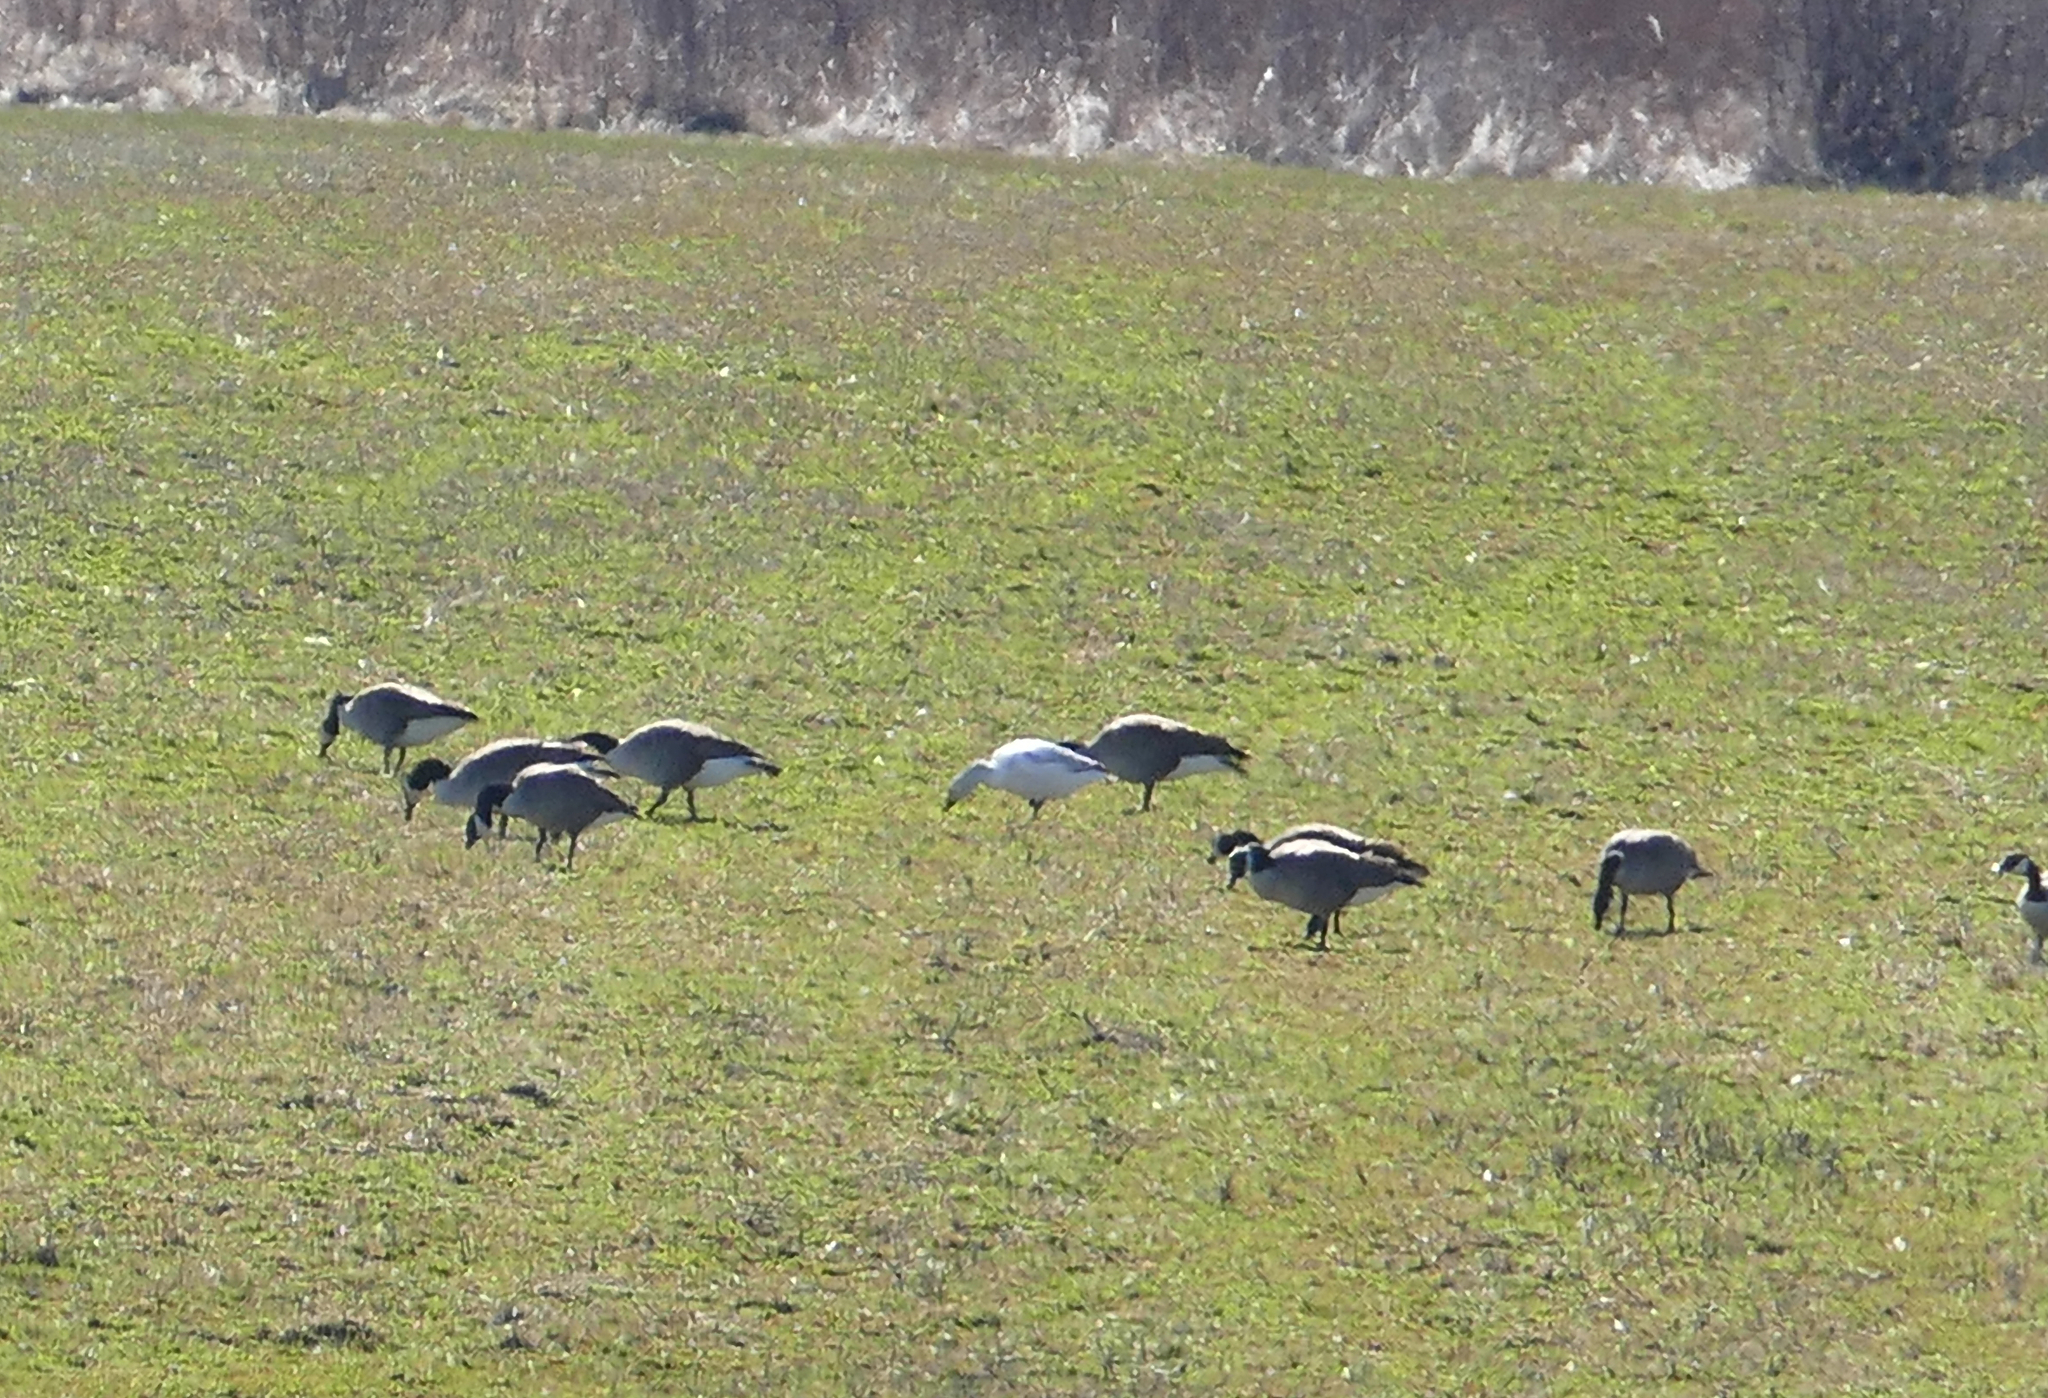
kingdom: Animalia
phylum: Chordata
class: Aves
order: Anseriformes
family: Anatidae
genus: Anser
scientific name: Anser caerulescens
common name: Snow goose
